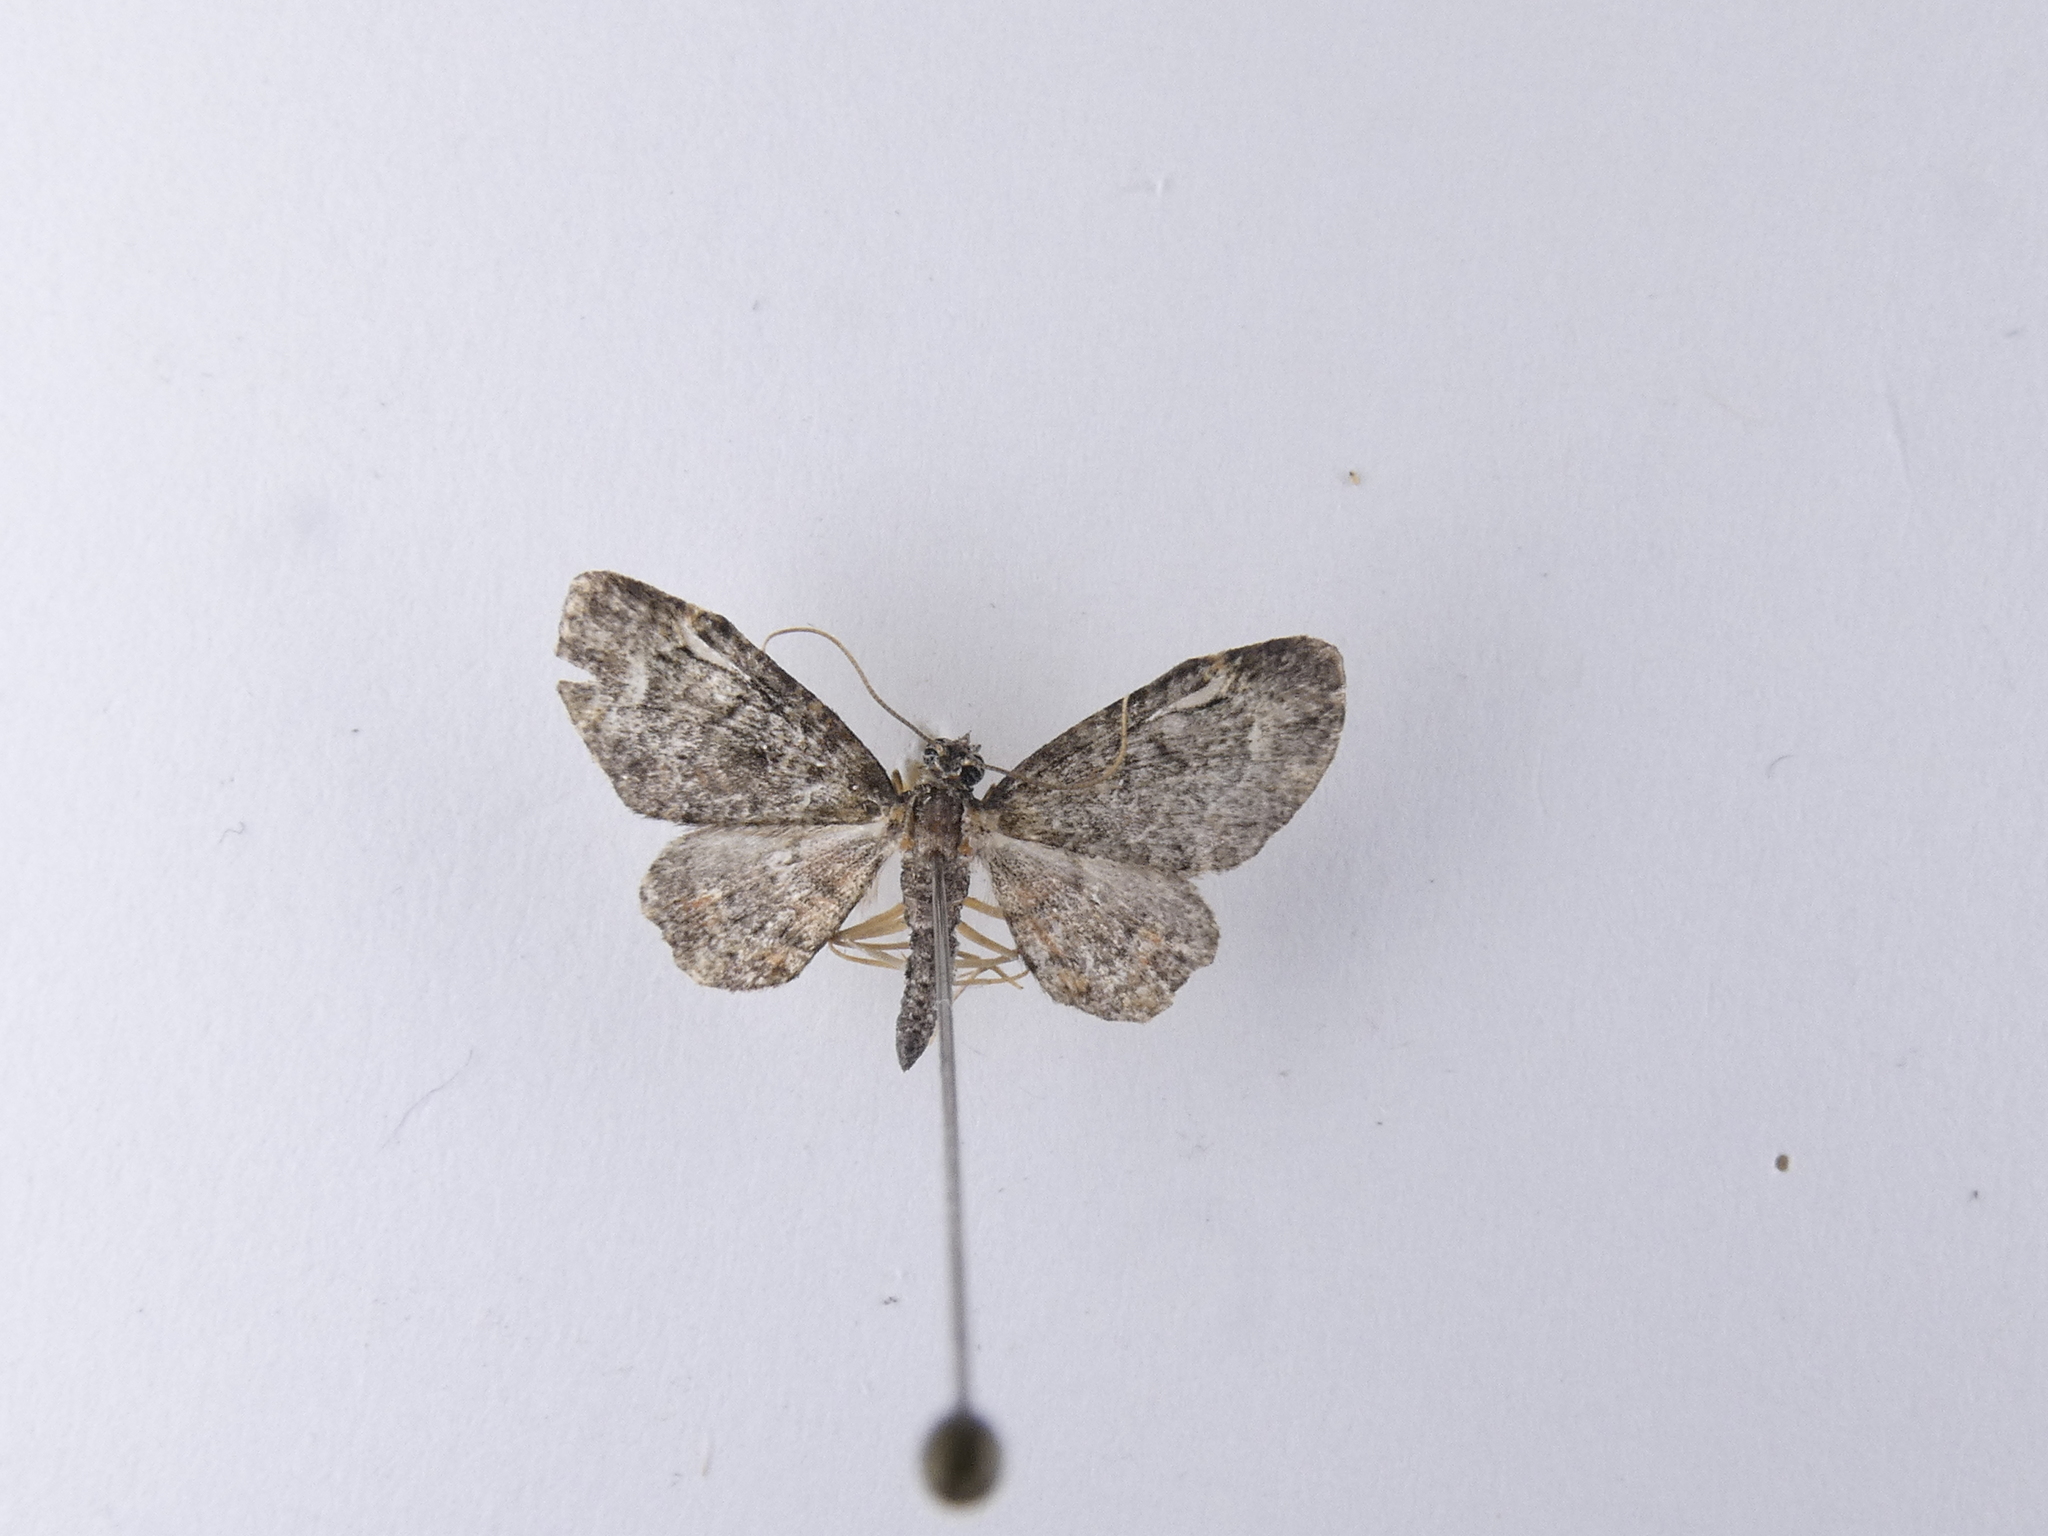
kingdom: Animalia
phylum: Arthropoda
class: Insecta
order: Lepidoptera
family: Geometridae
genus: Pasiphilodes
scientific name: Pasiphilodes testulata
